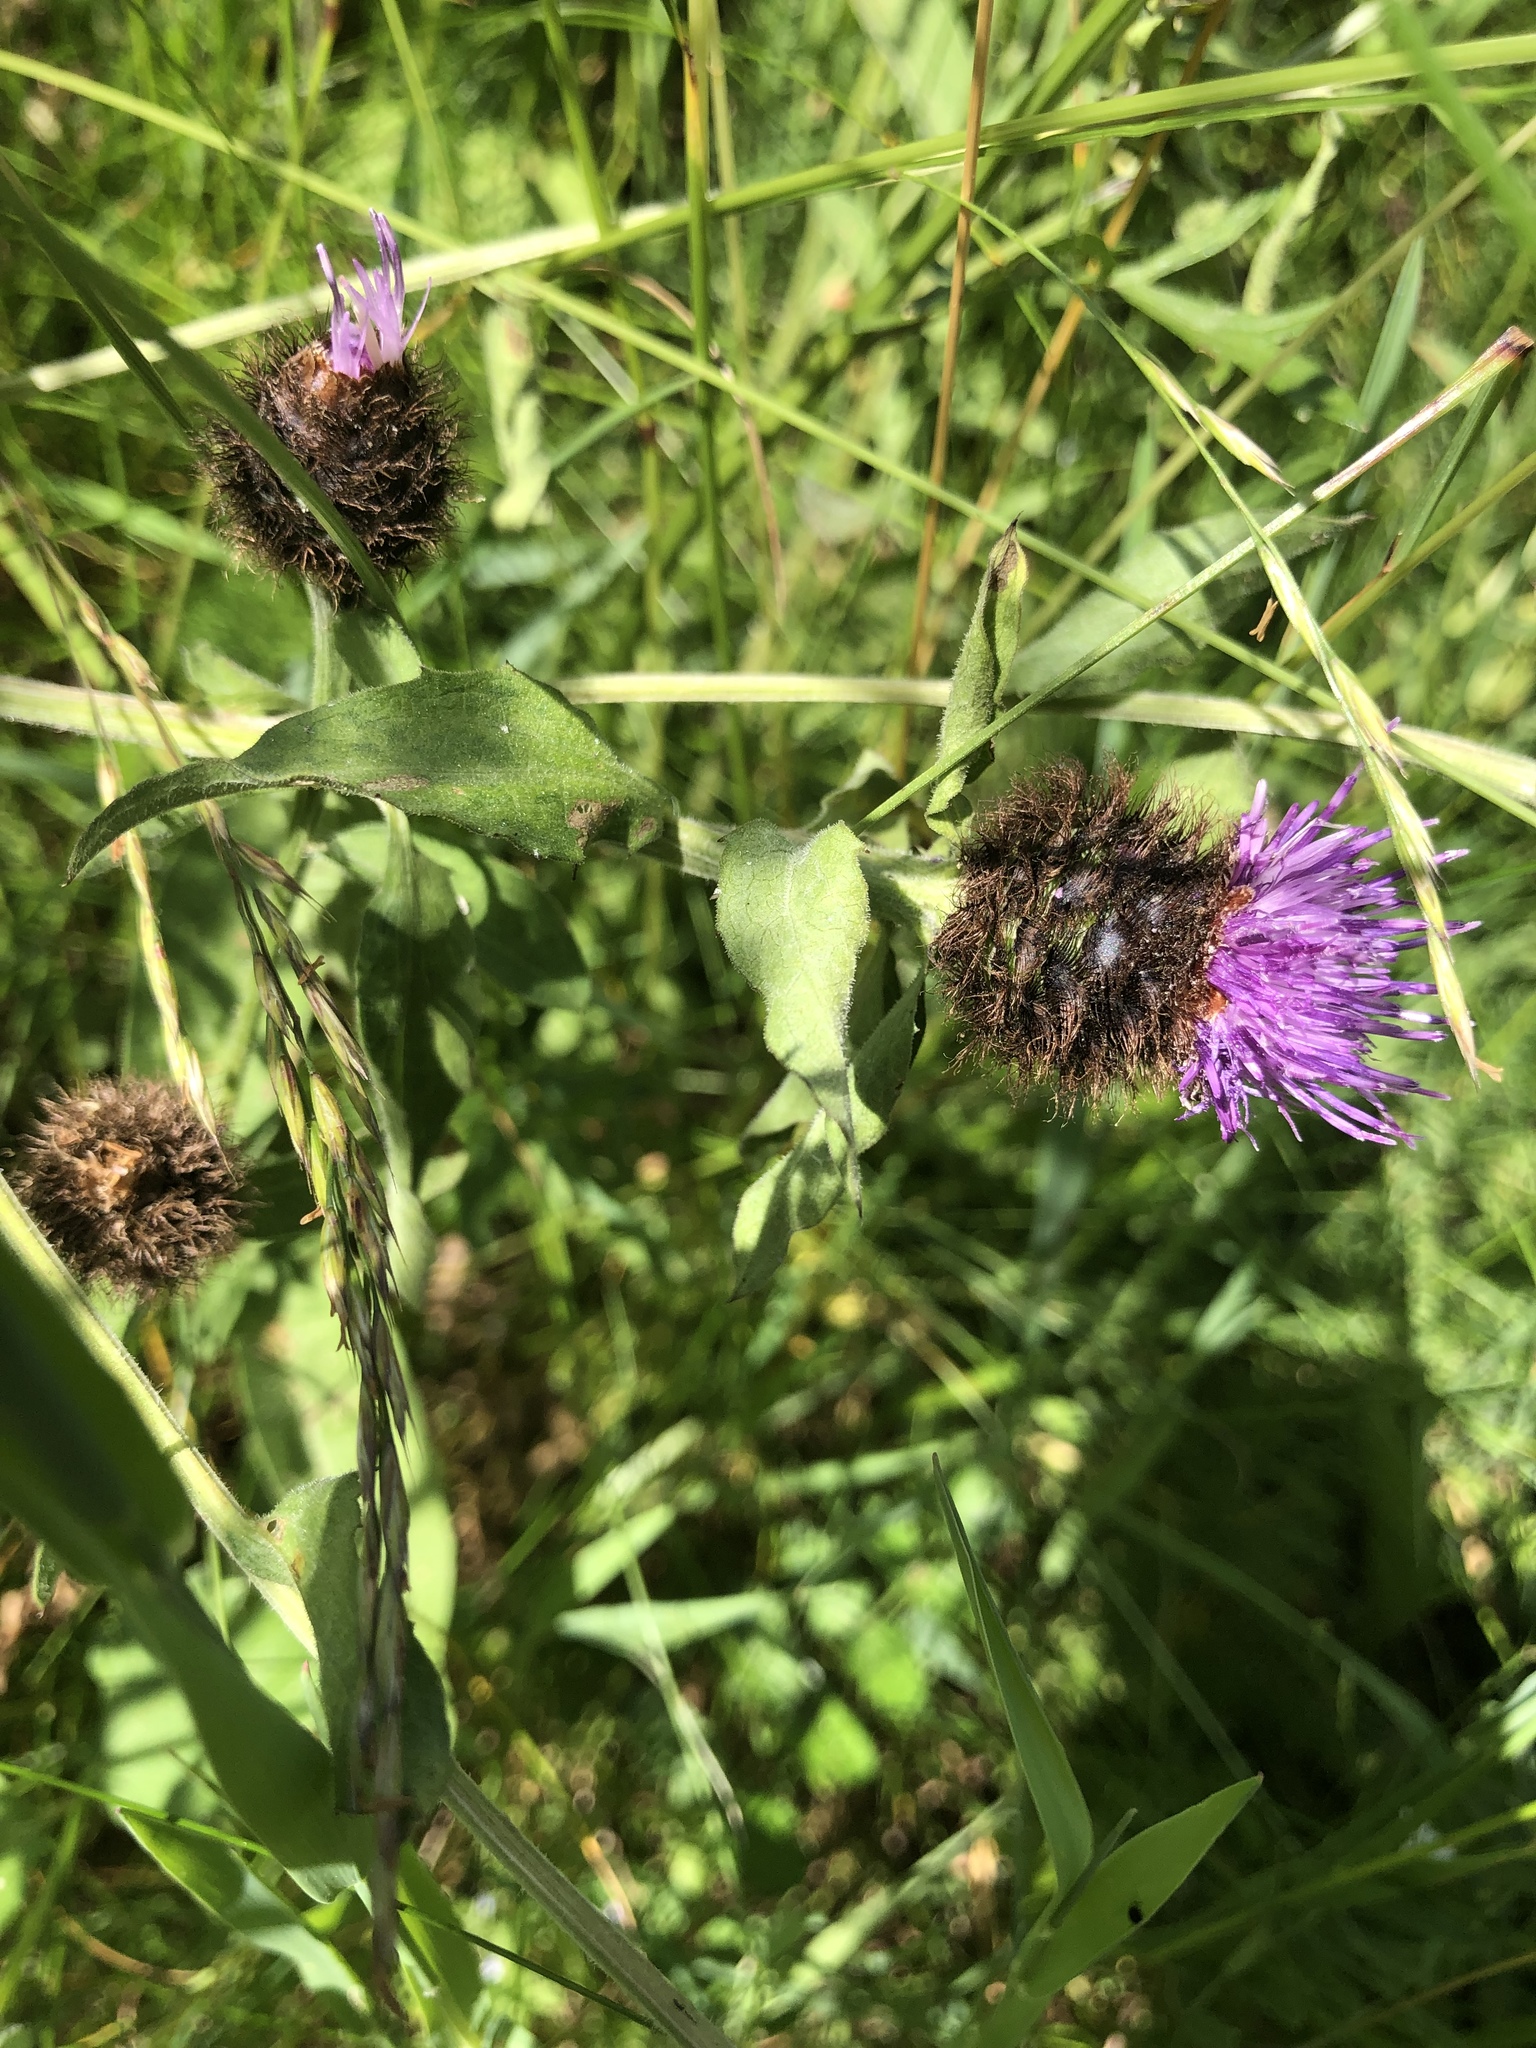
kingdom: Plantae
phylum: Tracheophyta
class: Magnoliopsida
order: Asterales
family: Asteraceae
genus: Centaurea
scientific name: Centaurea nigra
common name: Lesser knapweed
